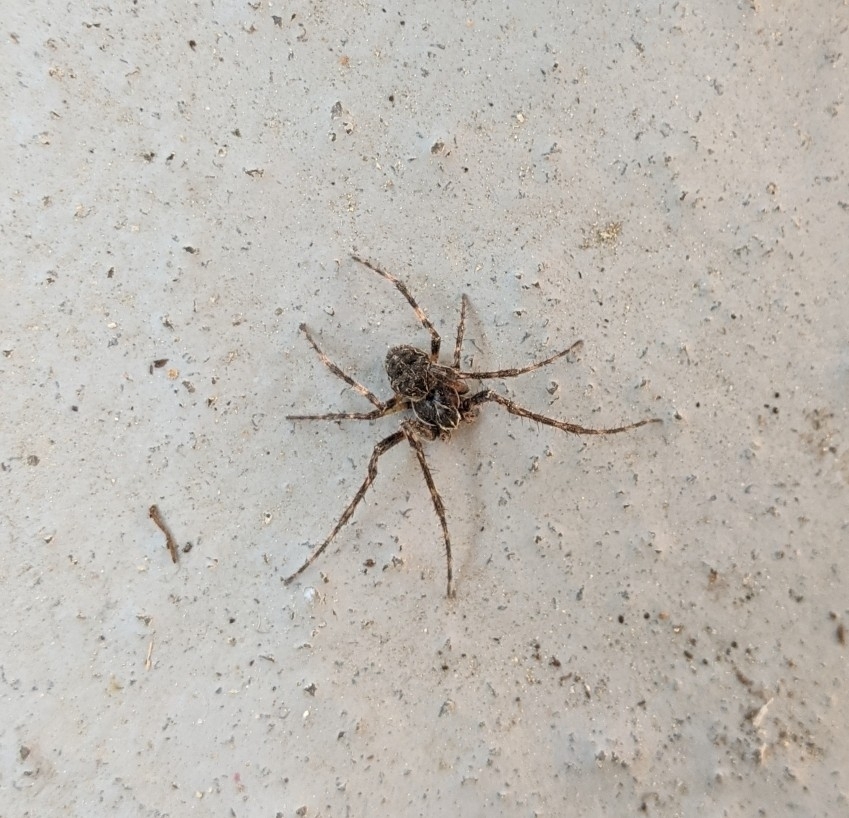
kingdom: Animalia
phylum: Arthropoda
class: Arachnida
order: Araneae
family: Araneidae
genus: Larinioides
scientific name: Larinioides sclopetarius
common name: Bridge orbweaver
